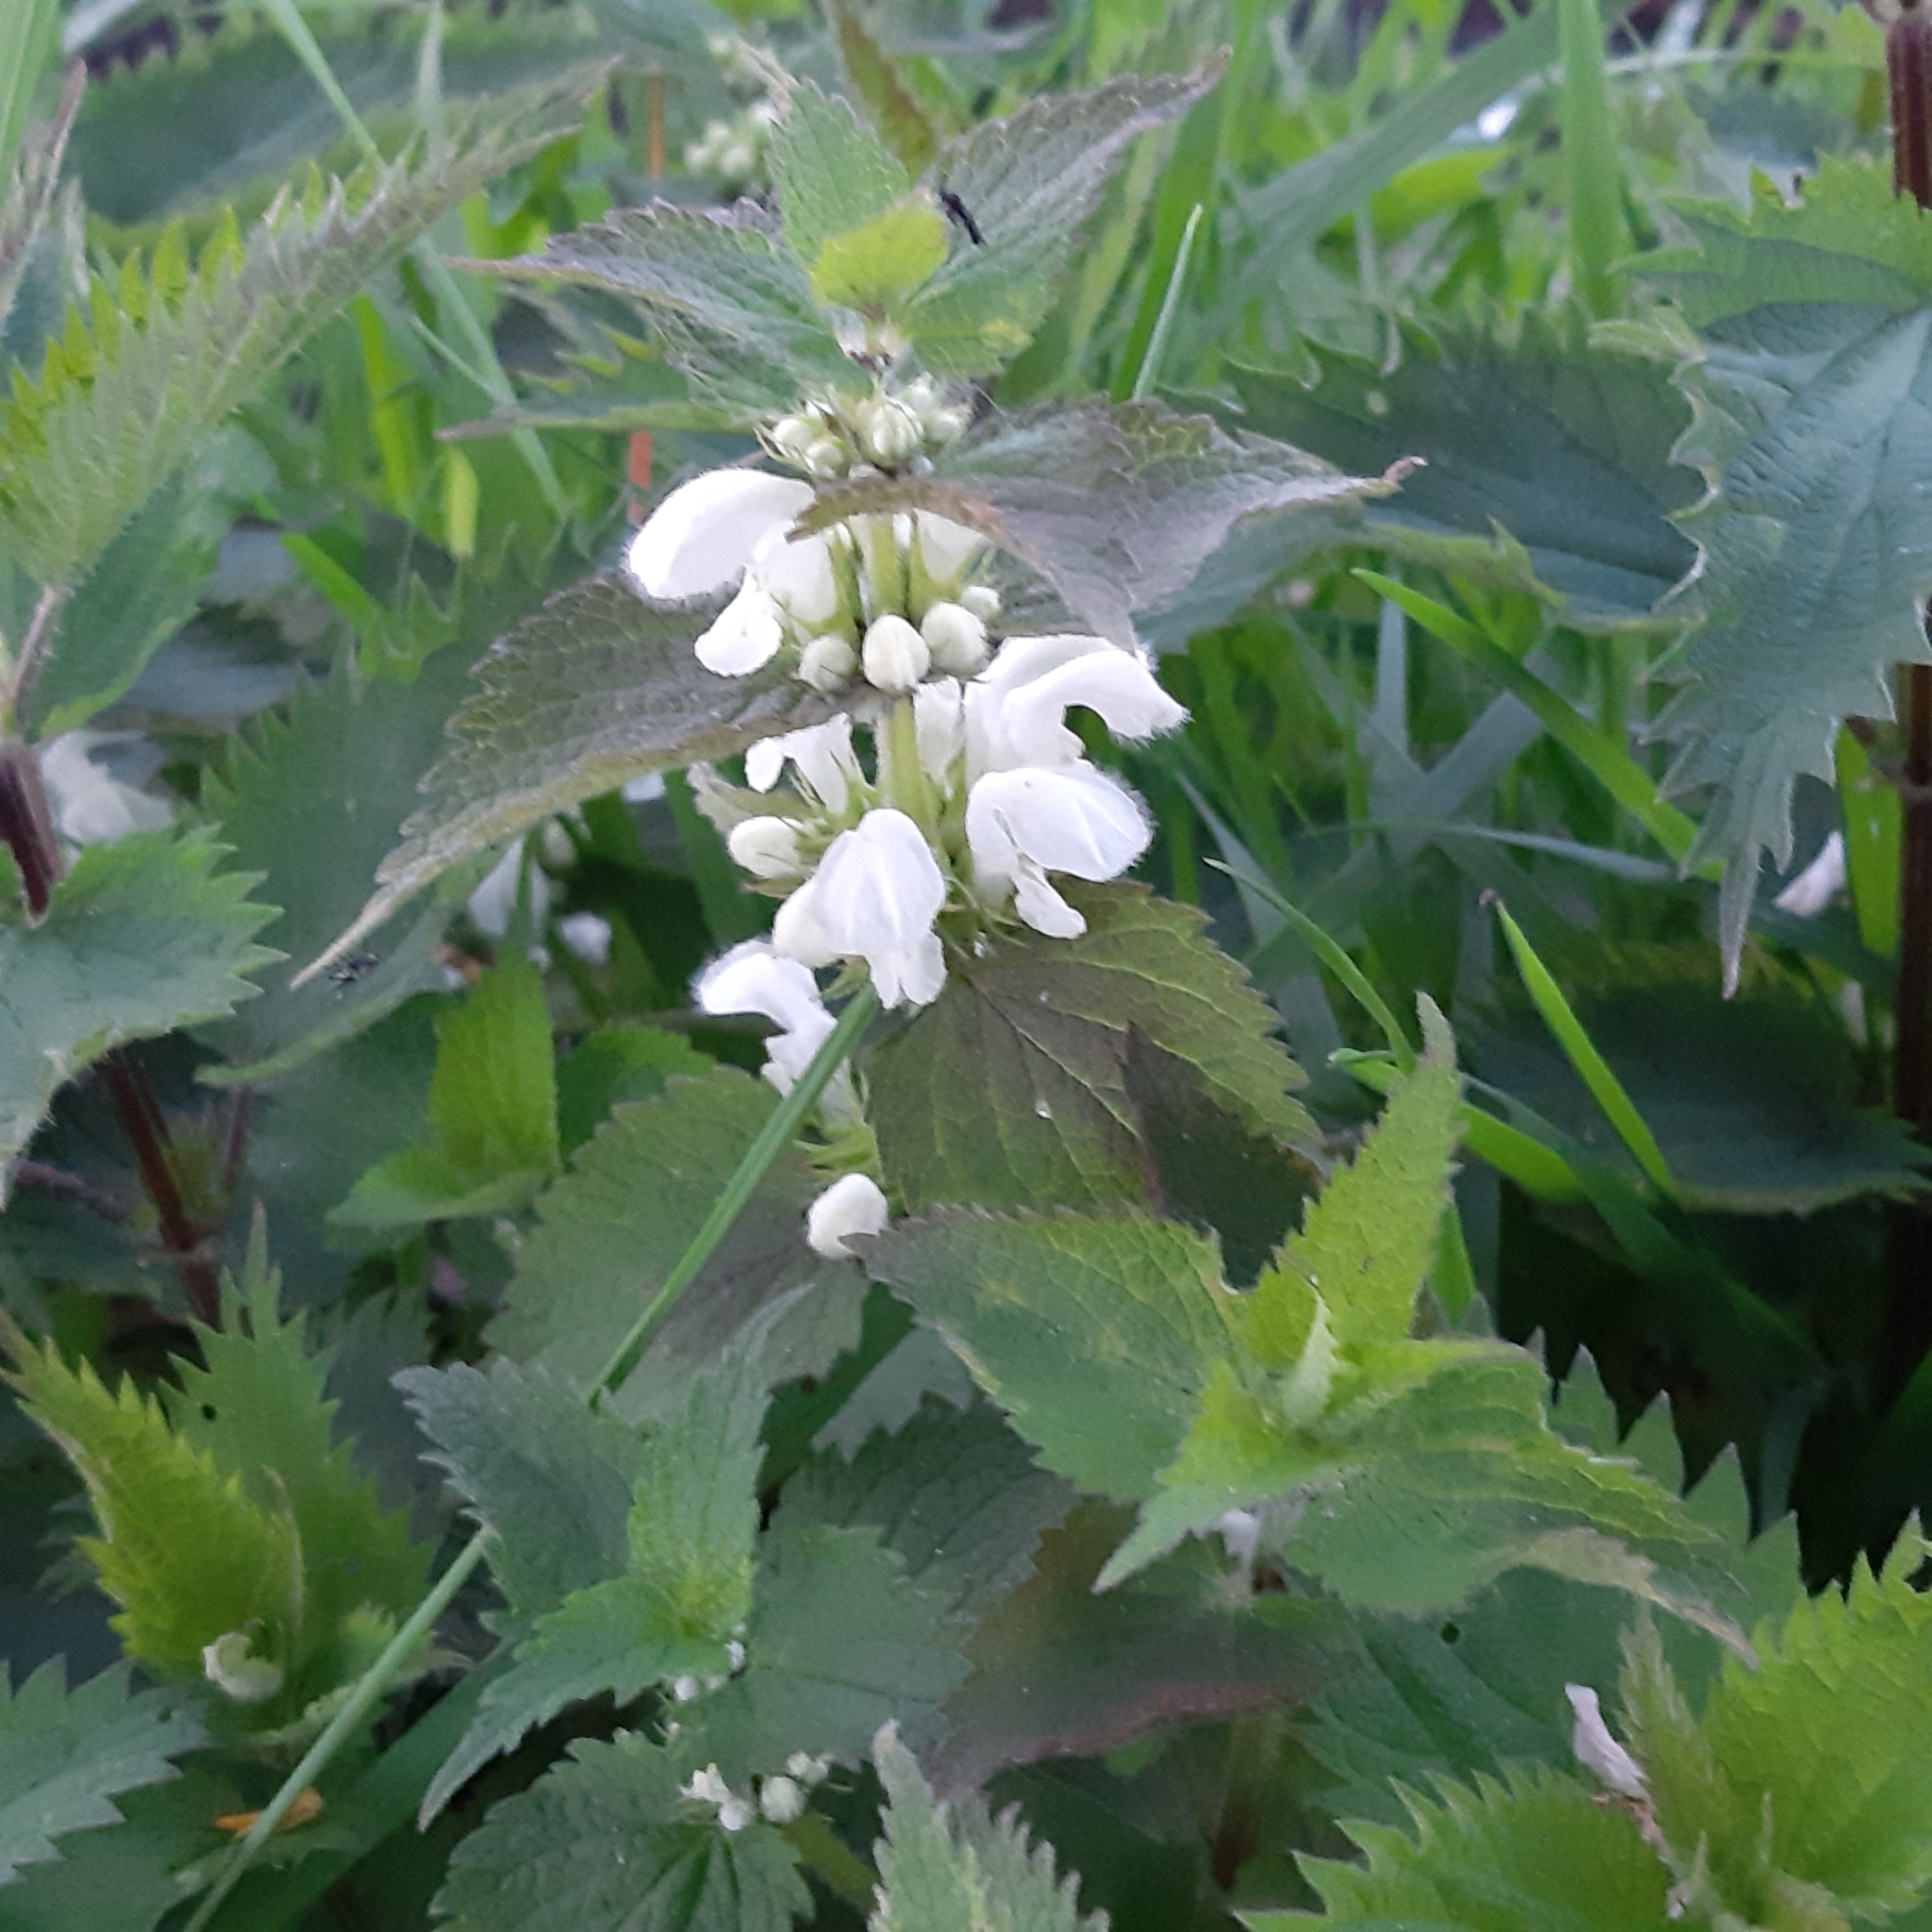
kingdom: Plantae
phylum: Tracheophyta
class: Magnoliopsida
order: Lamiales
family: Lamiaceae
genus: Lamium
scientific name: Lamium album
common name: White dead-nettle
